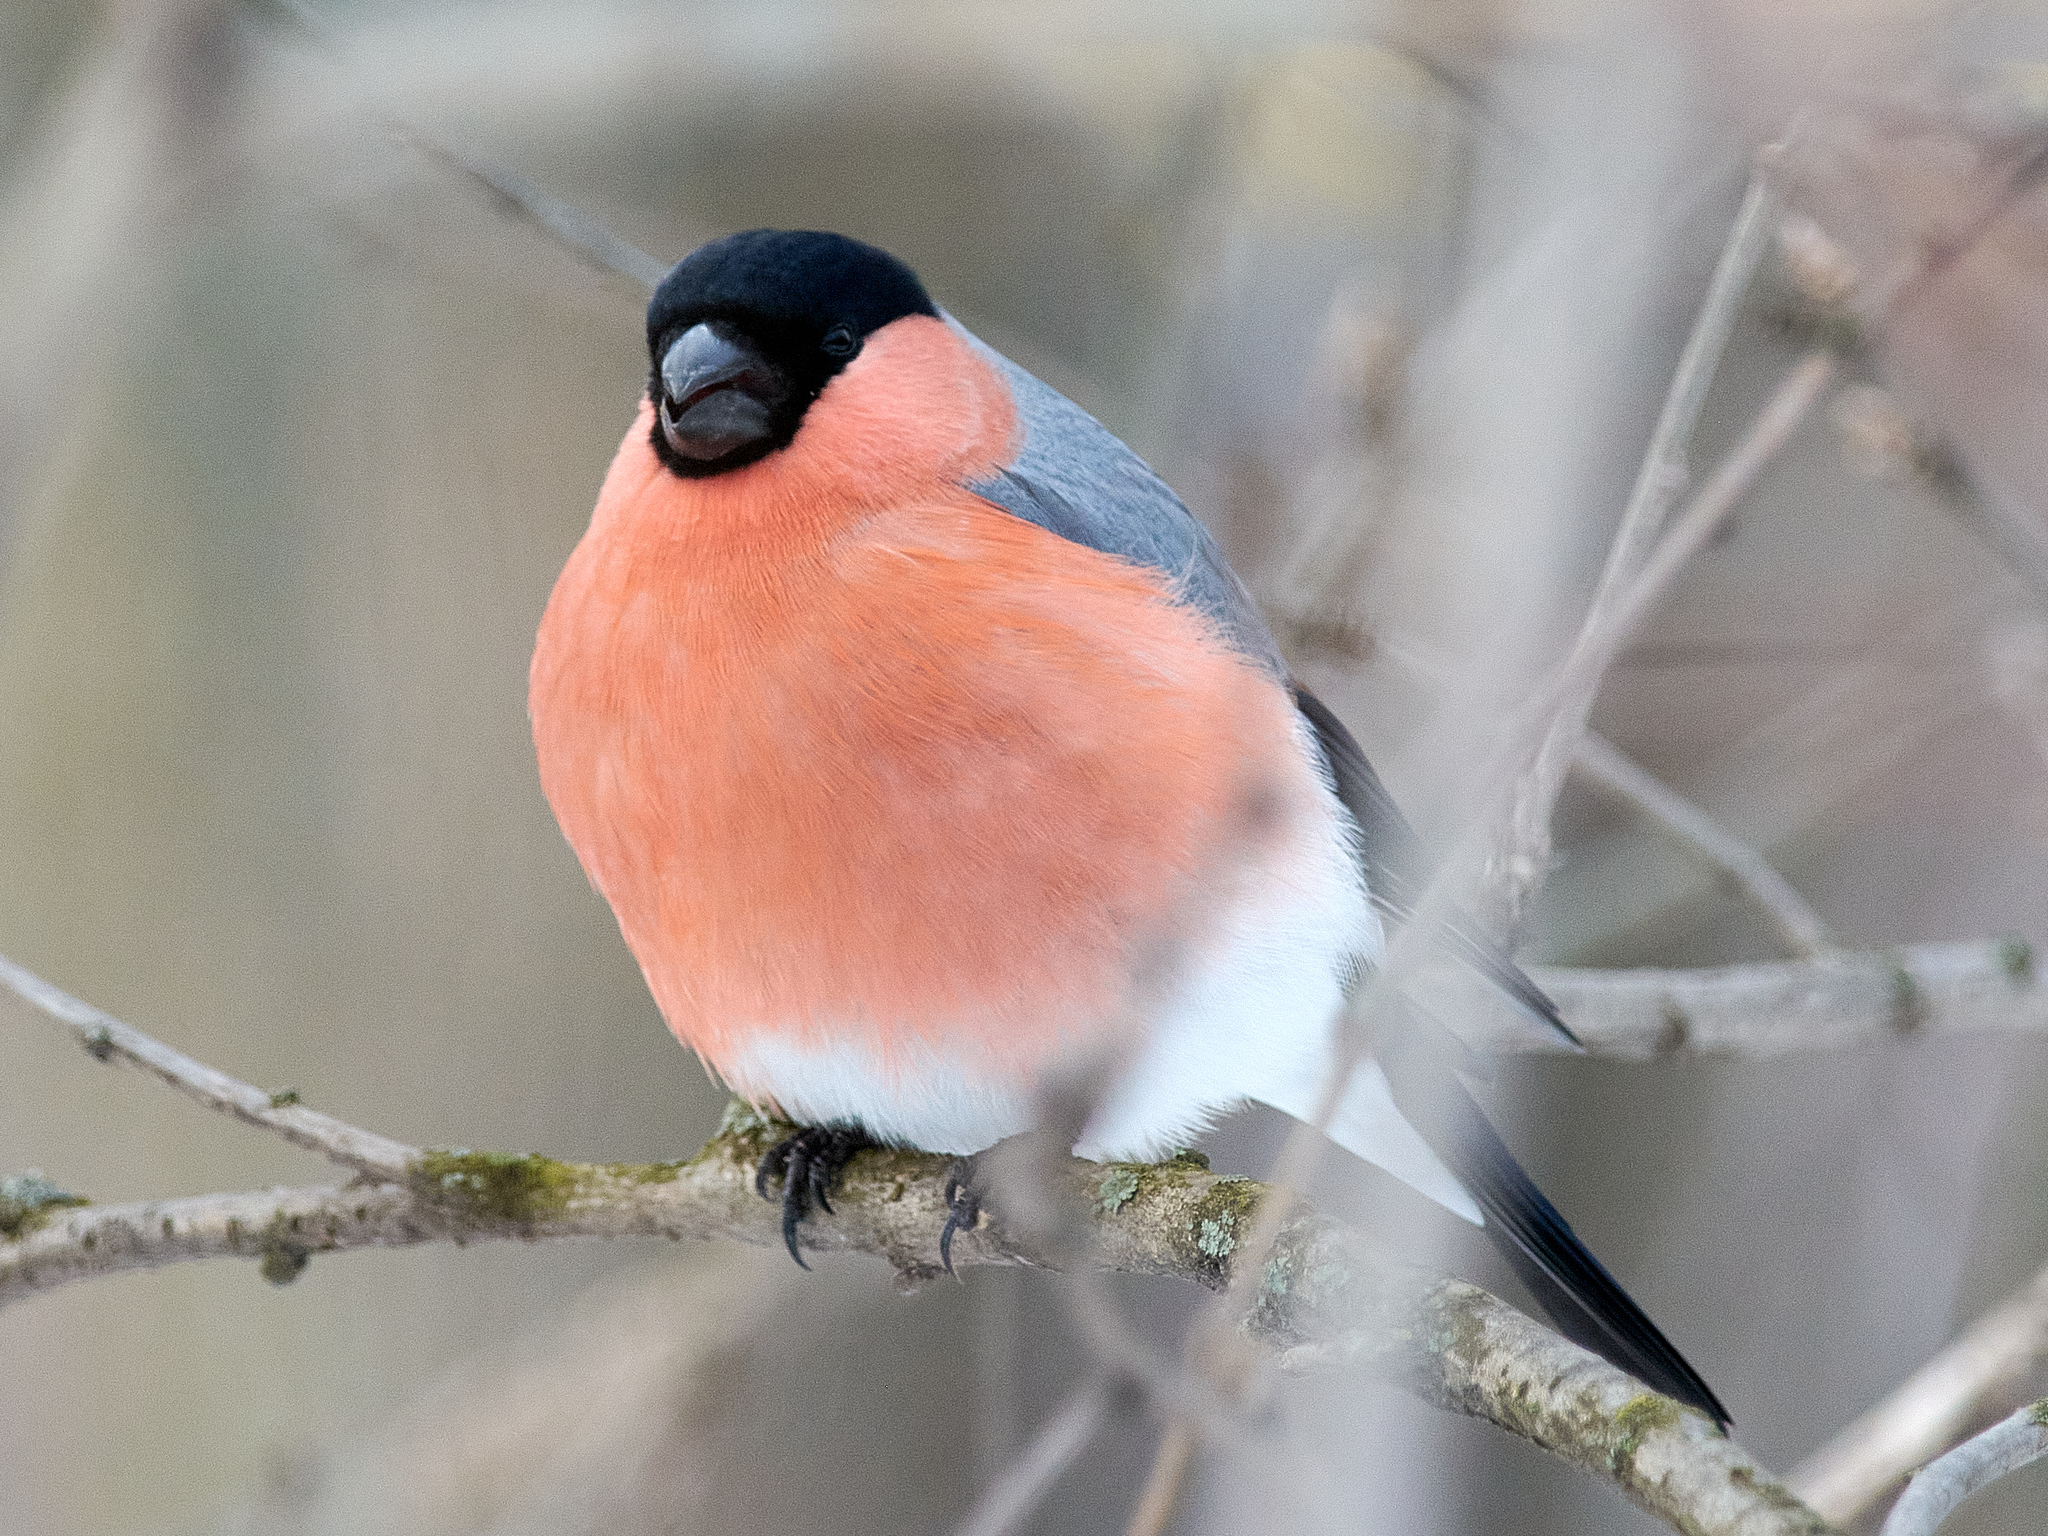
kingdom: Animalia
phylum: Chordata
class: Aves
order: Passeriformes
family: Fringillidae
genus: Pyrrhula
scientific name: Pyrrhula pyrrhula
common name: Eurasian bullfinch
